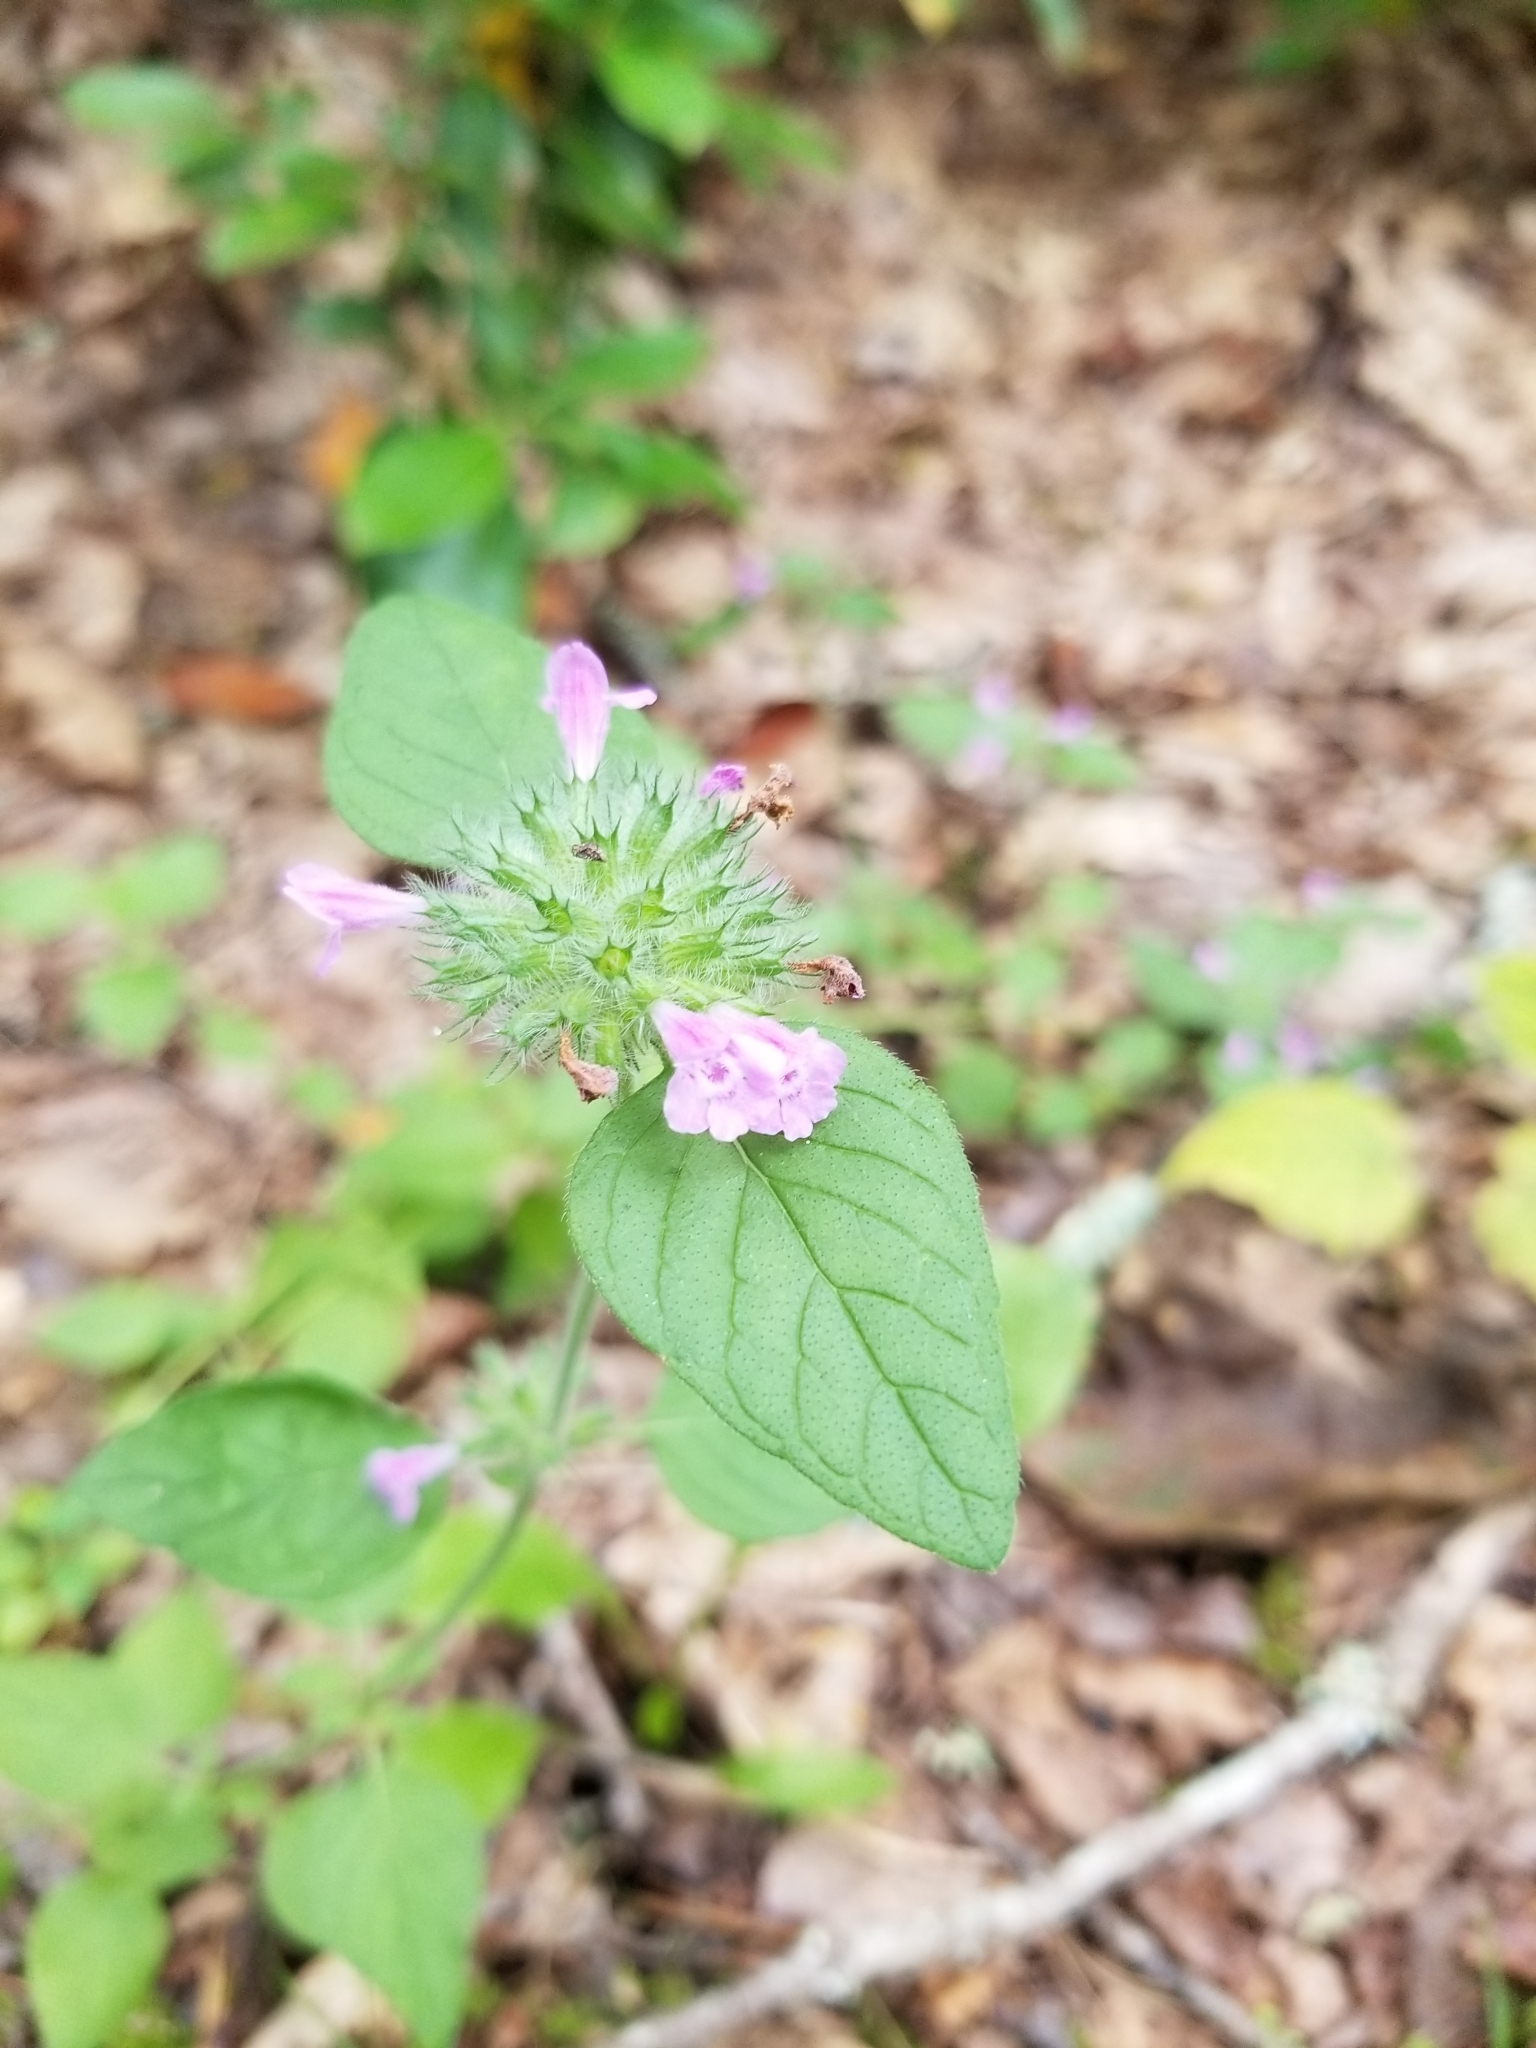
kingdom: Plantae
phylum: Tracheophyta
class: Magnoliopsida
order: Lamiales
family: Lamiaceae
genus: Clinopodium
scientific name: Clinopodium vulgare
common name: Wild basil
